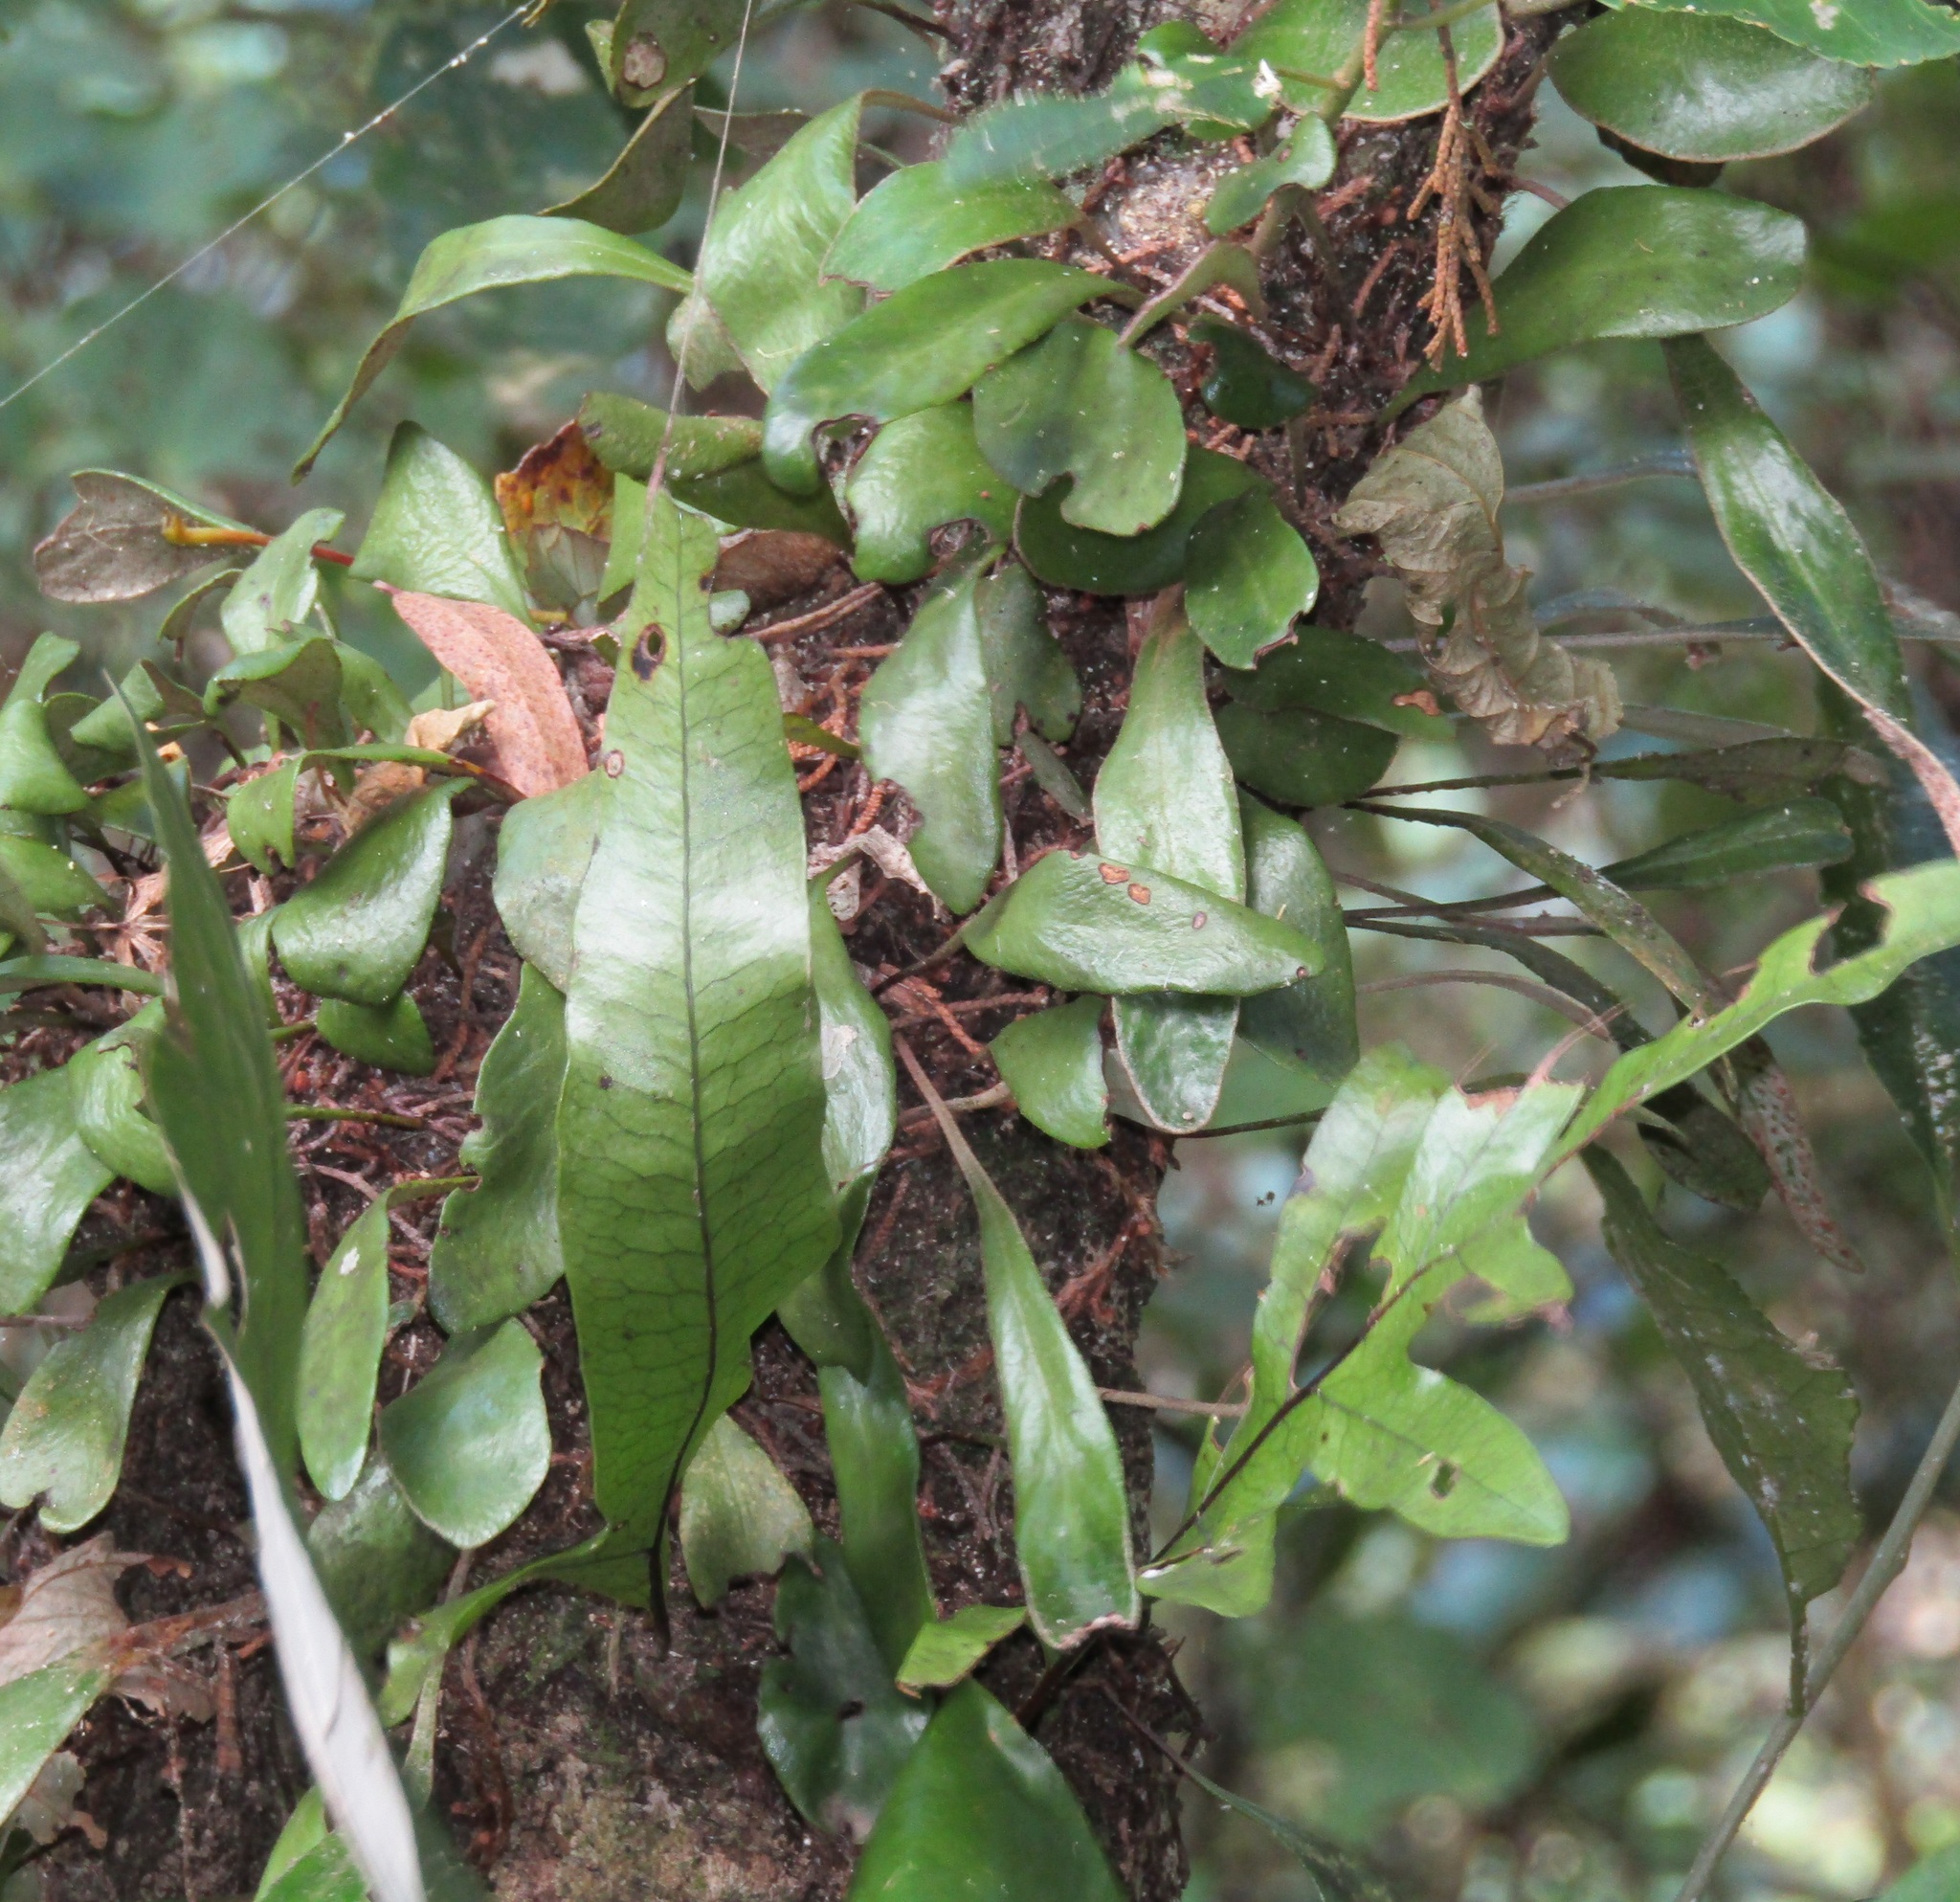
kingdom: Plantae
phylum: Tracheophyta
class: Polypodiopsida
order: Polypodiales
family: Polypodiaceae
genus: Pyrrosia
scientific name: Pyrrosia eleagnifolia
